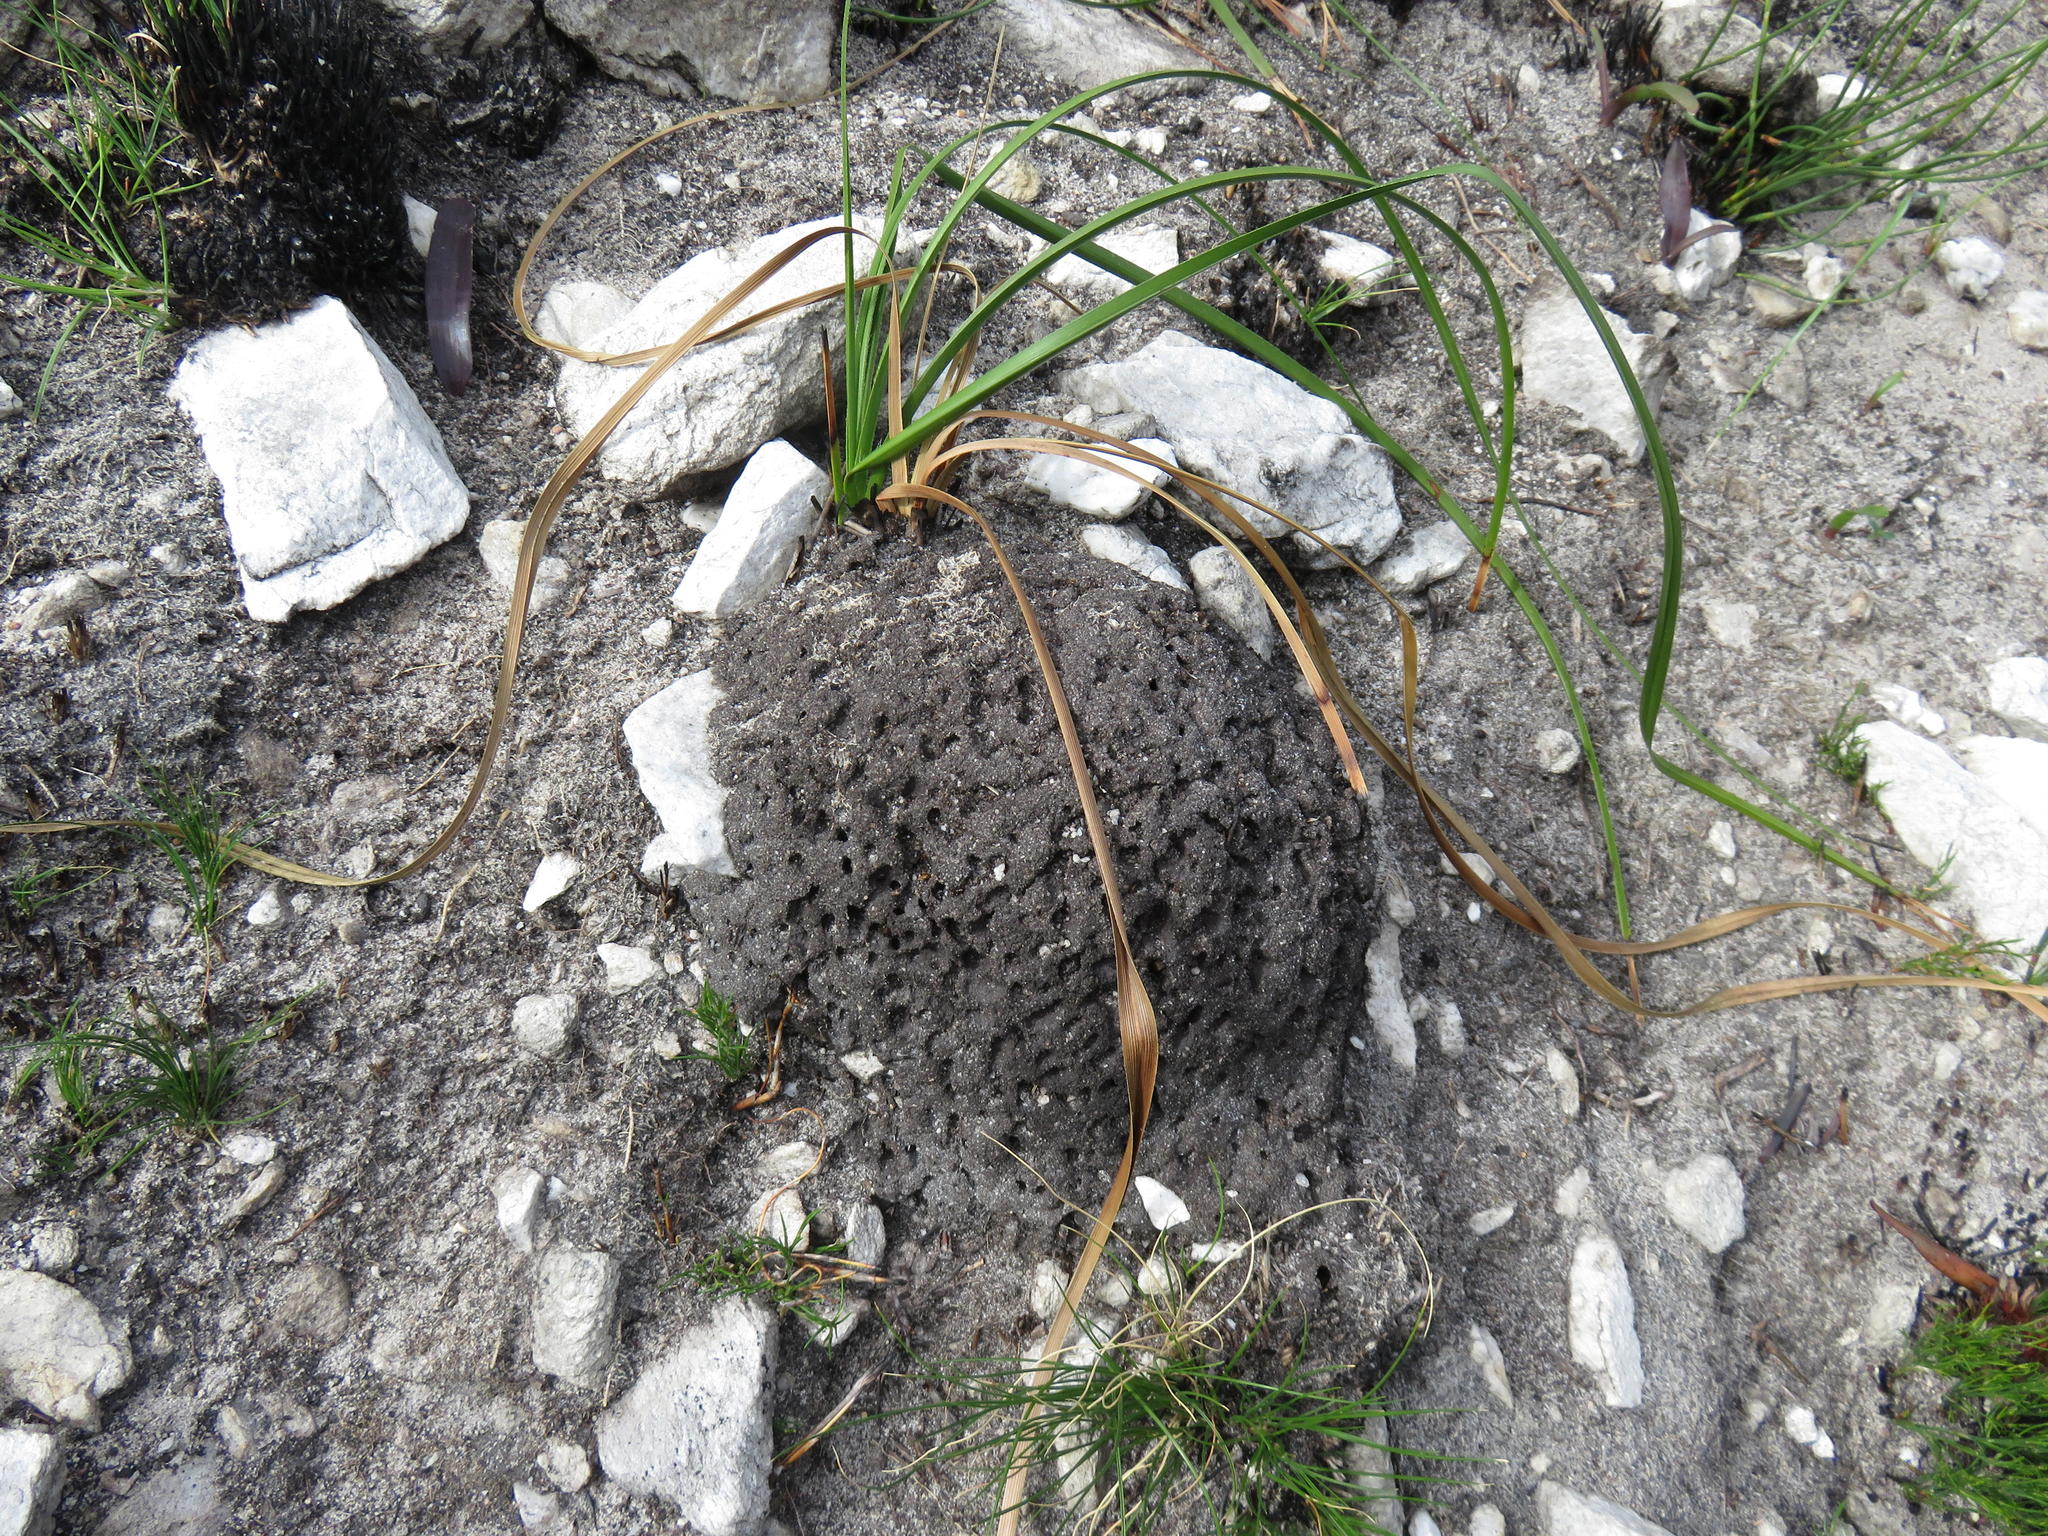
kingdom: Animalia
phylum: Arthropoda
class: Insecta
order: Blattodea
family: Termitidae
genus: Amitermes
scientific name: Amitermes hastatus
